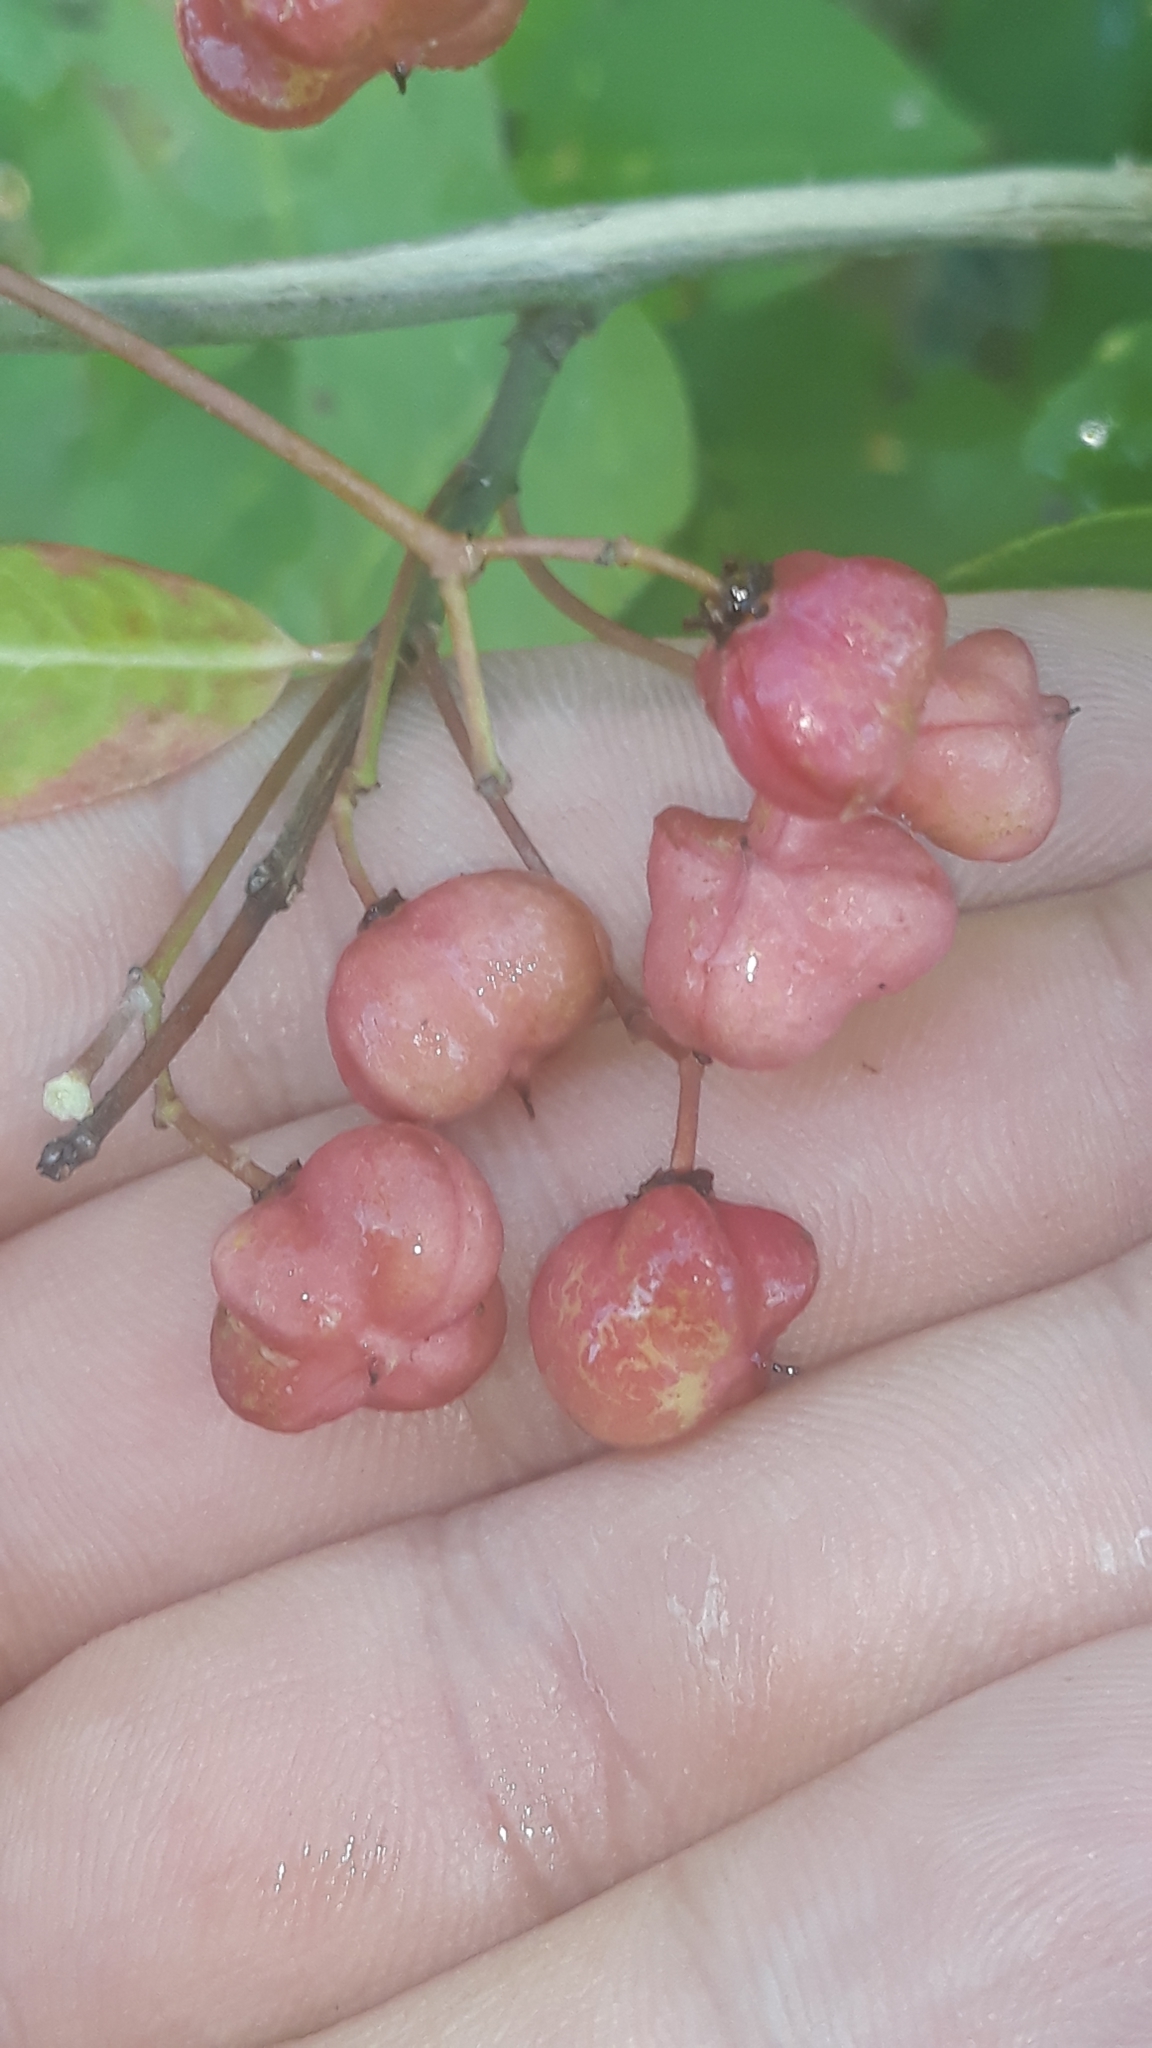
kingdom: Plantae
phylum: Tracheophyta
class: Magnoliopsida
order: Celastrales
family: Celastraceae
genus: Euonymus
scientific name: Euonymus europaeus
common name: Spindle
